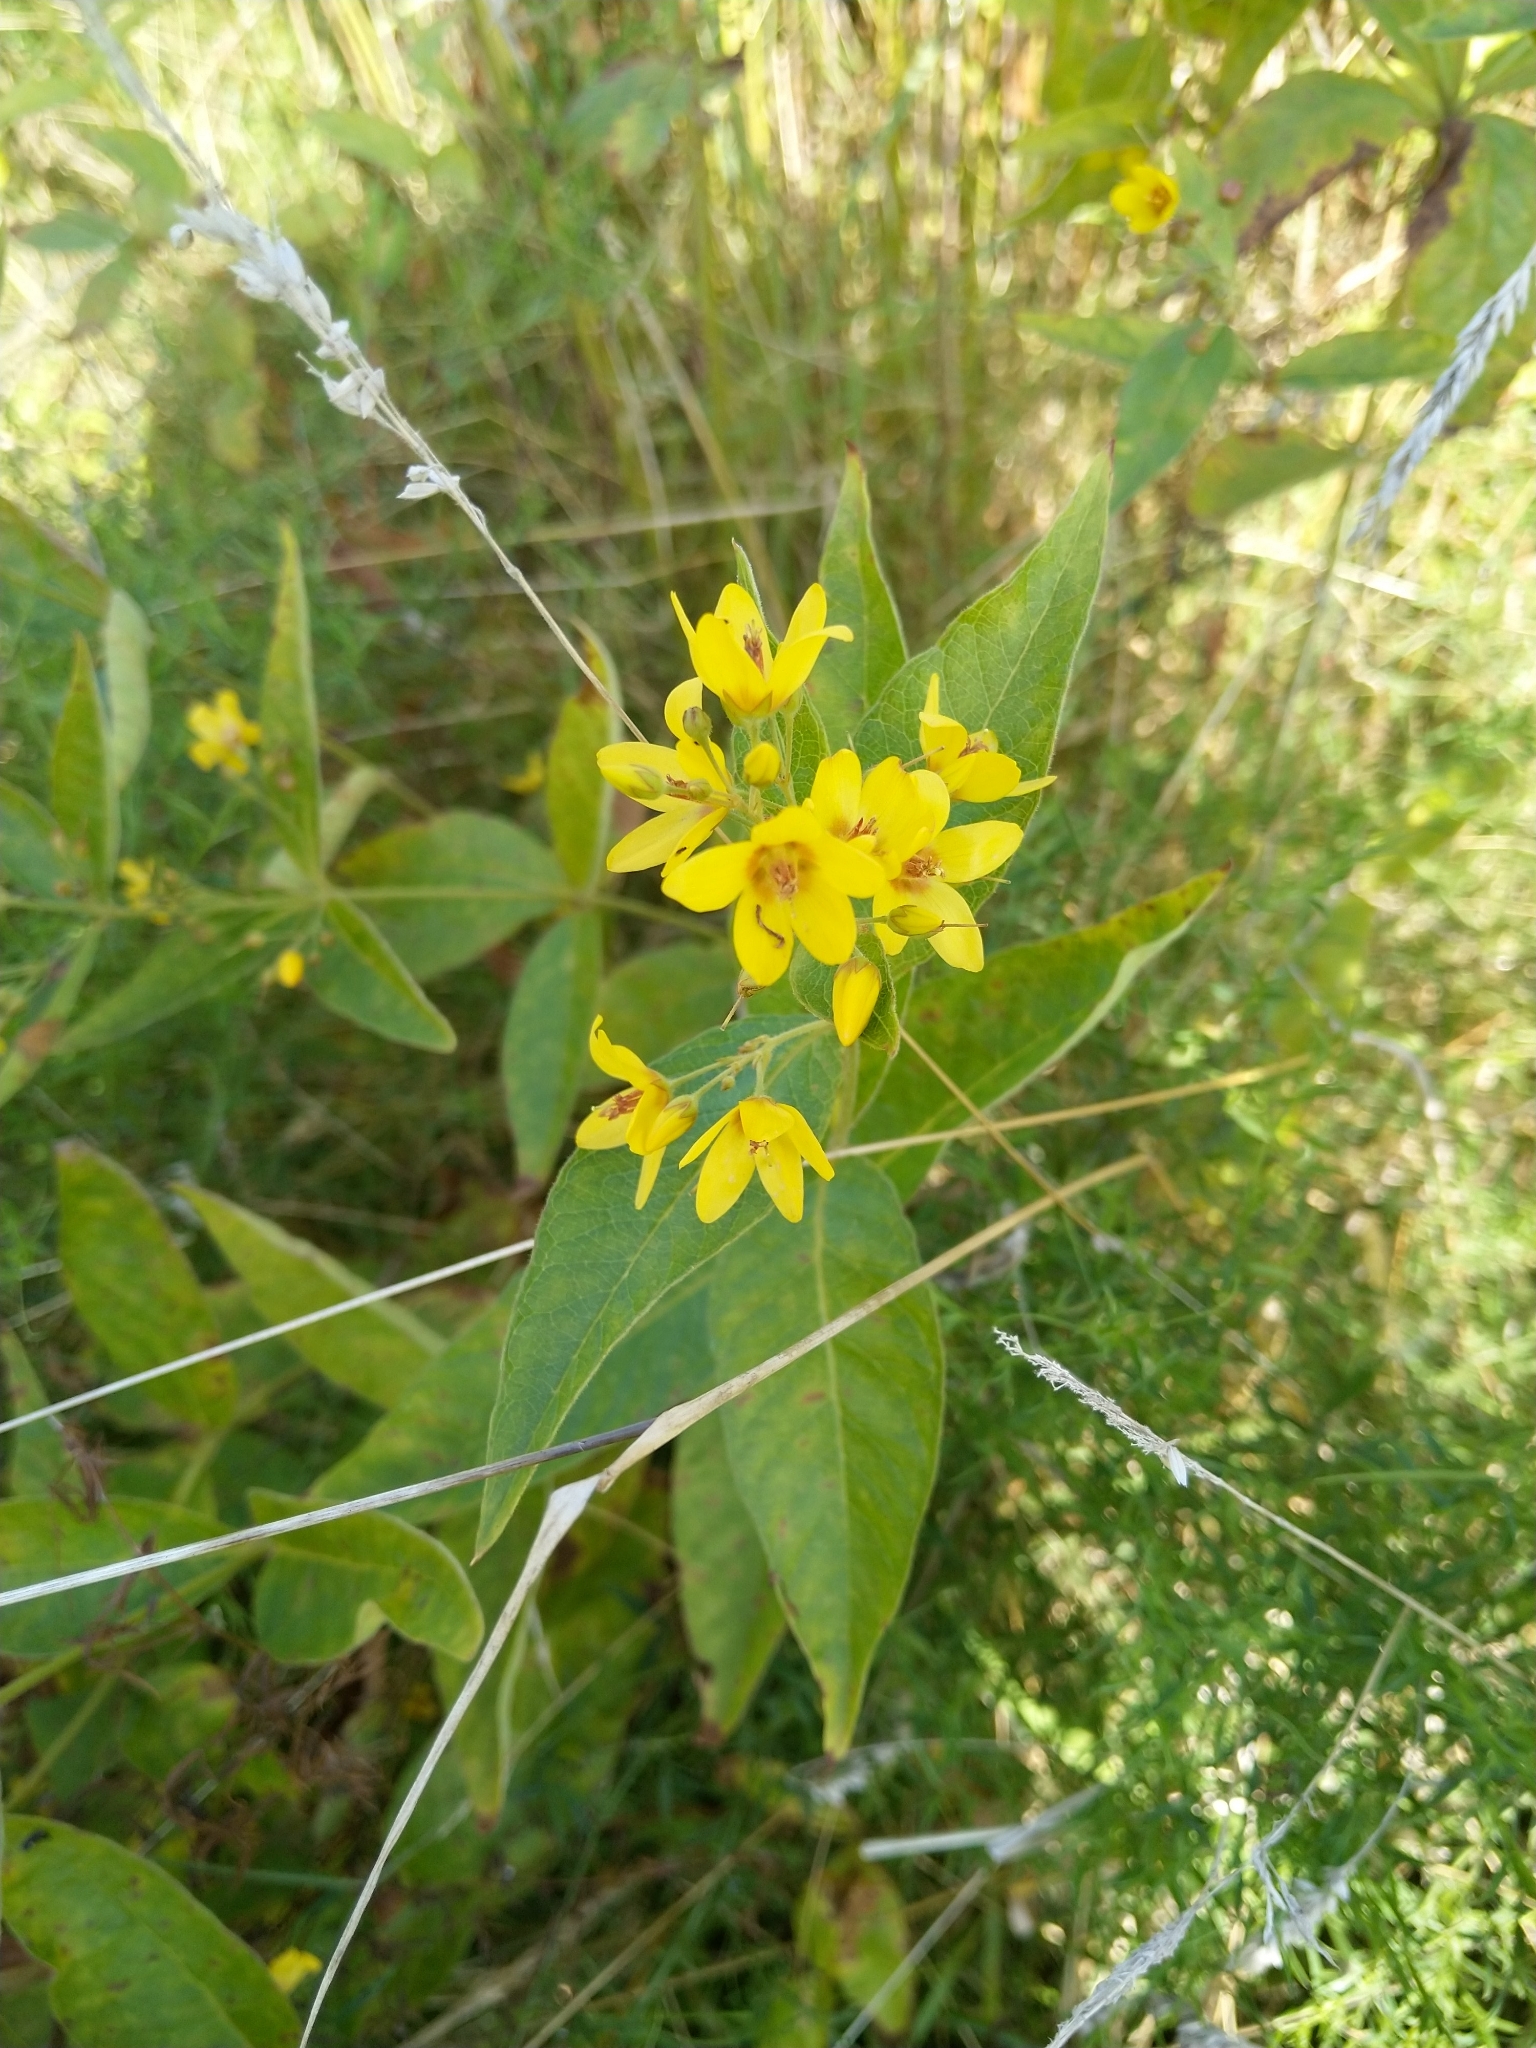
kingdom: Plantae
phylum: Tracheophyta
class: Magnoliopsida
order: Ericales
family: Primulaceae
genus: Lysimachia
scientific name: Lysimachia vulgaris
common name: Yellow loosestrife
